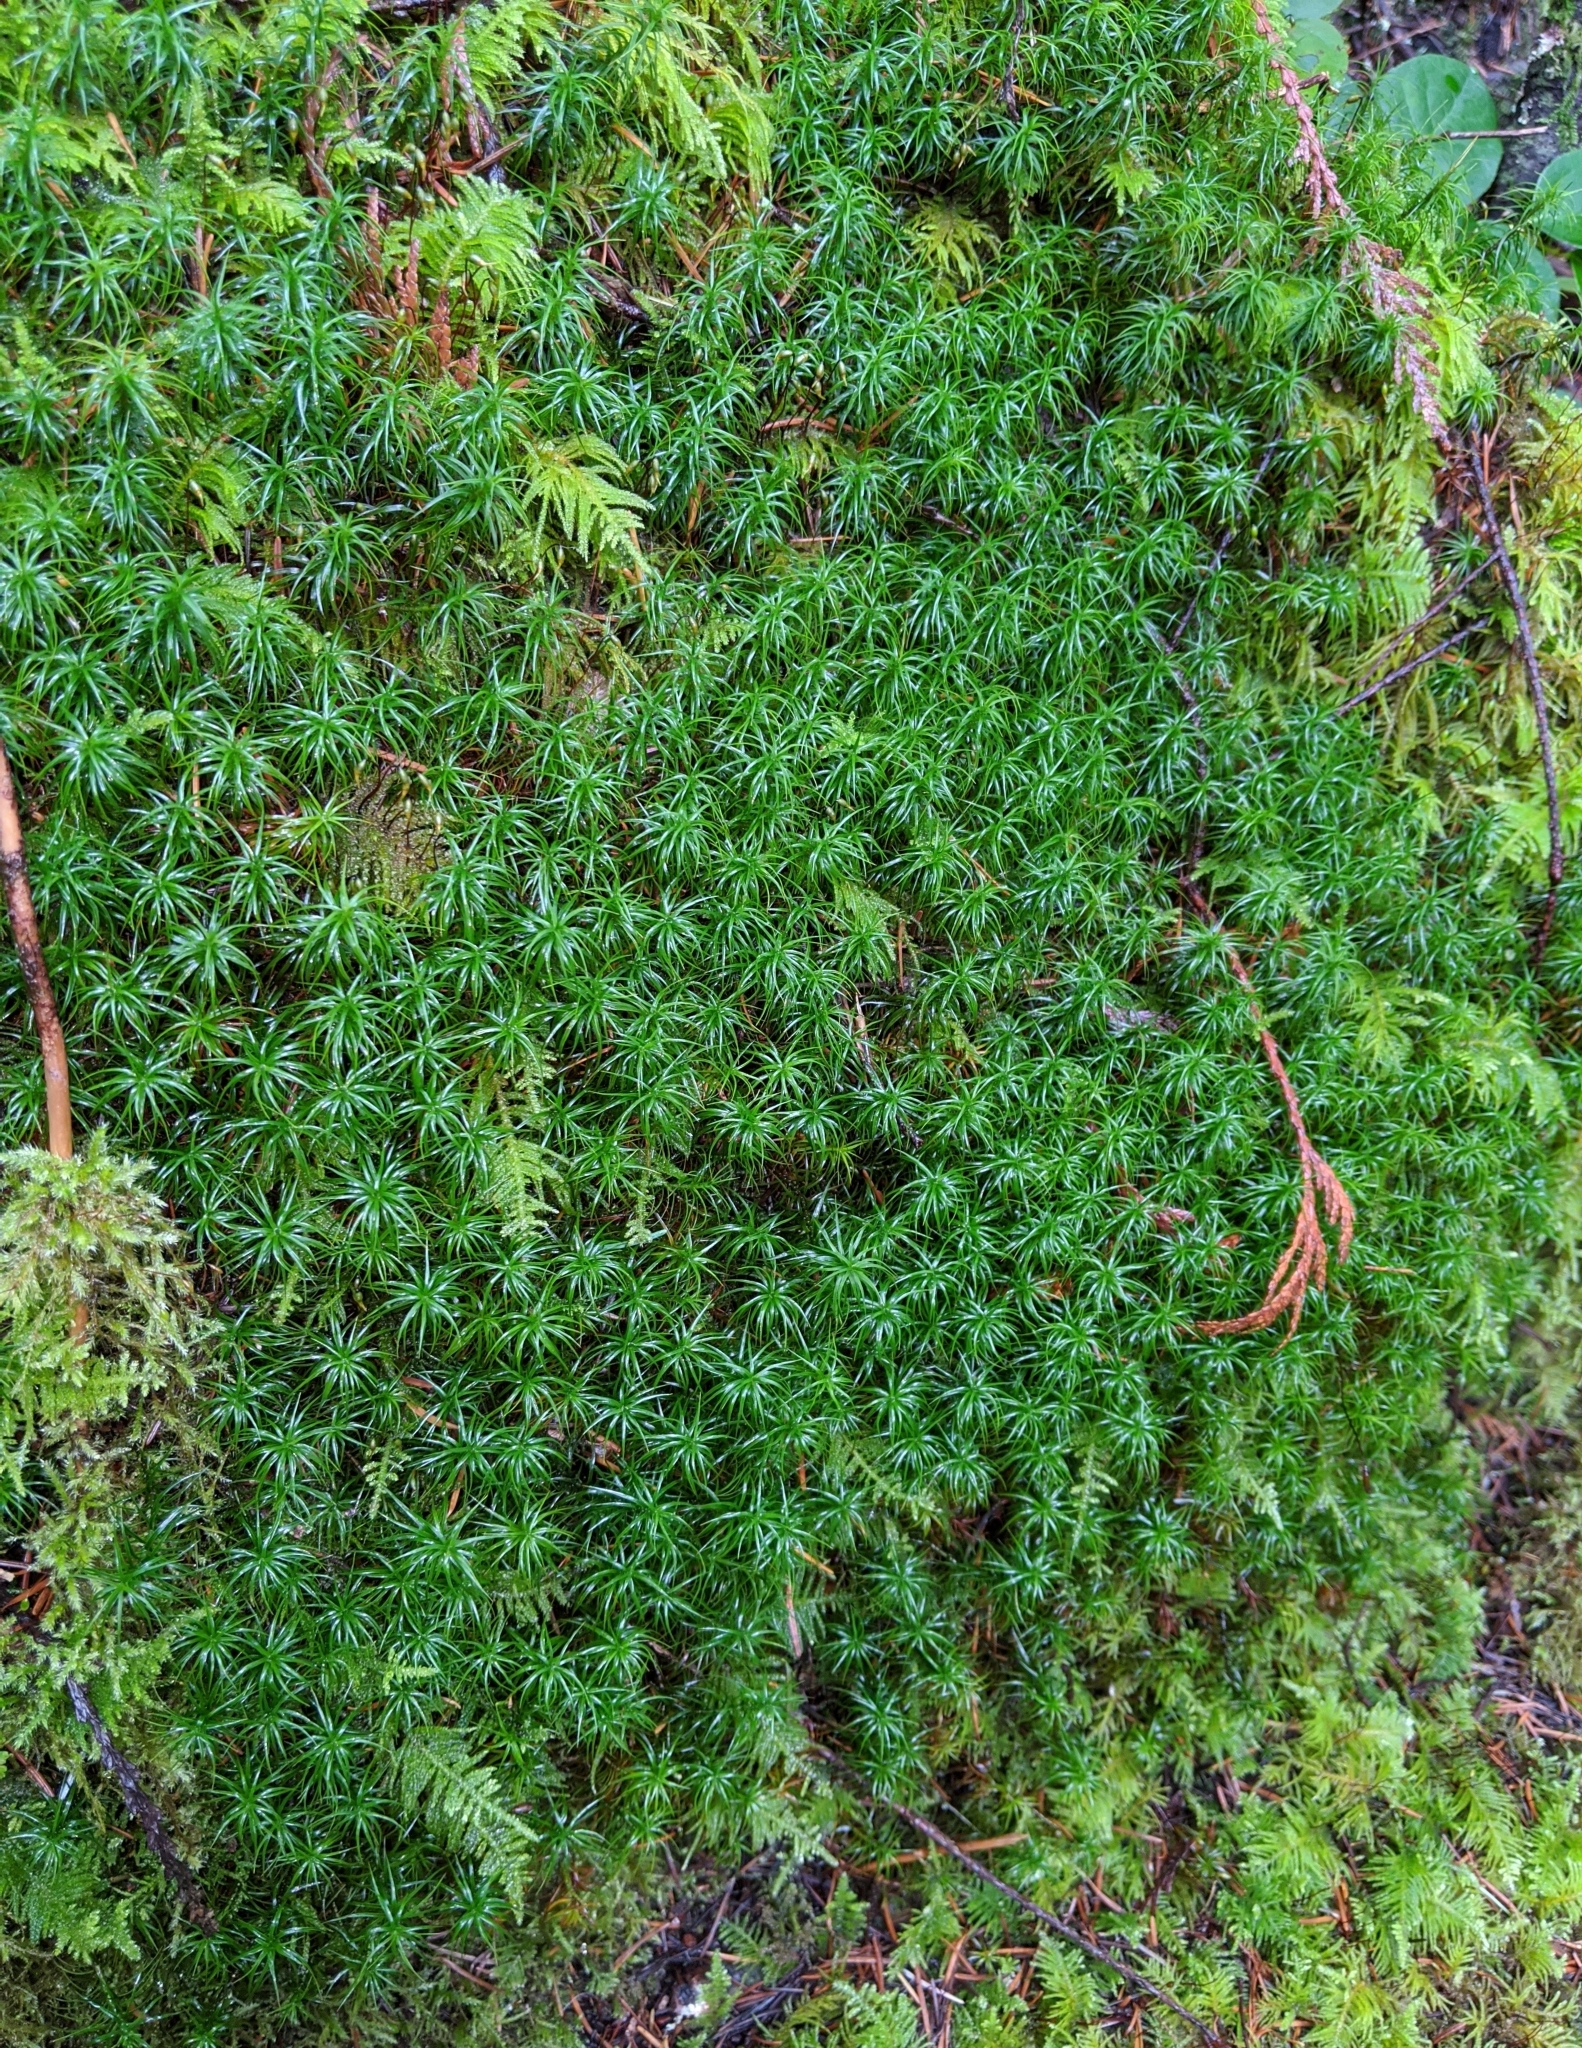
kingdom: Plantae
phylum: Bryophyta
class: Polytrichopsida
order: Polytrichales
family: Polytrichaceae
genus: Polytrichastrum
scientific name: Polytrichastrum alpinum
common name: Alpine haircap
